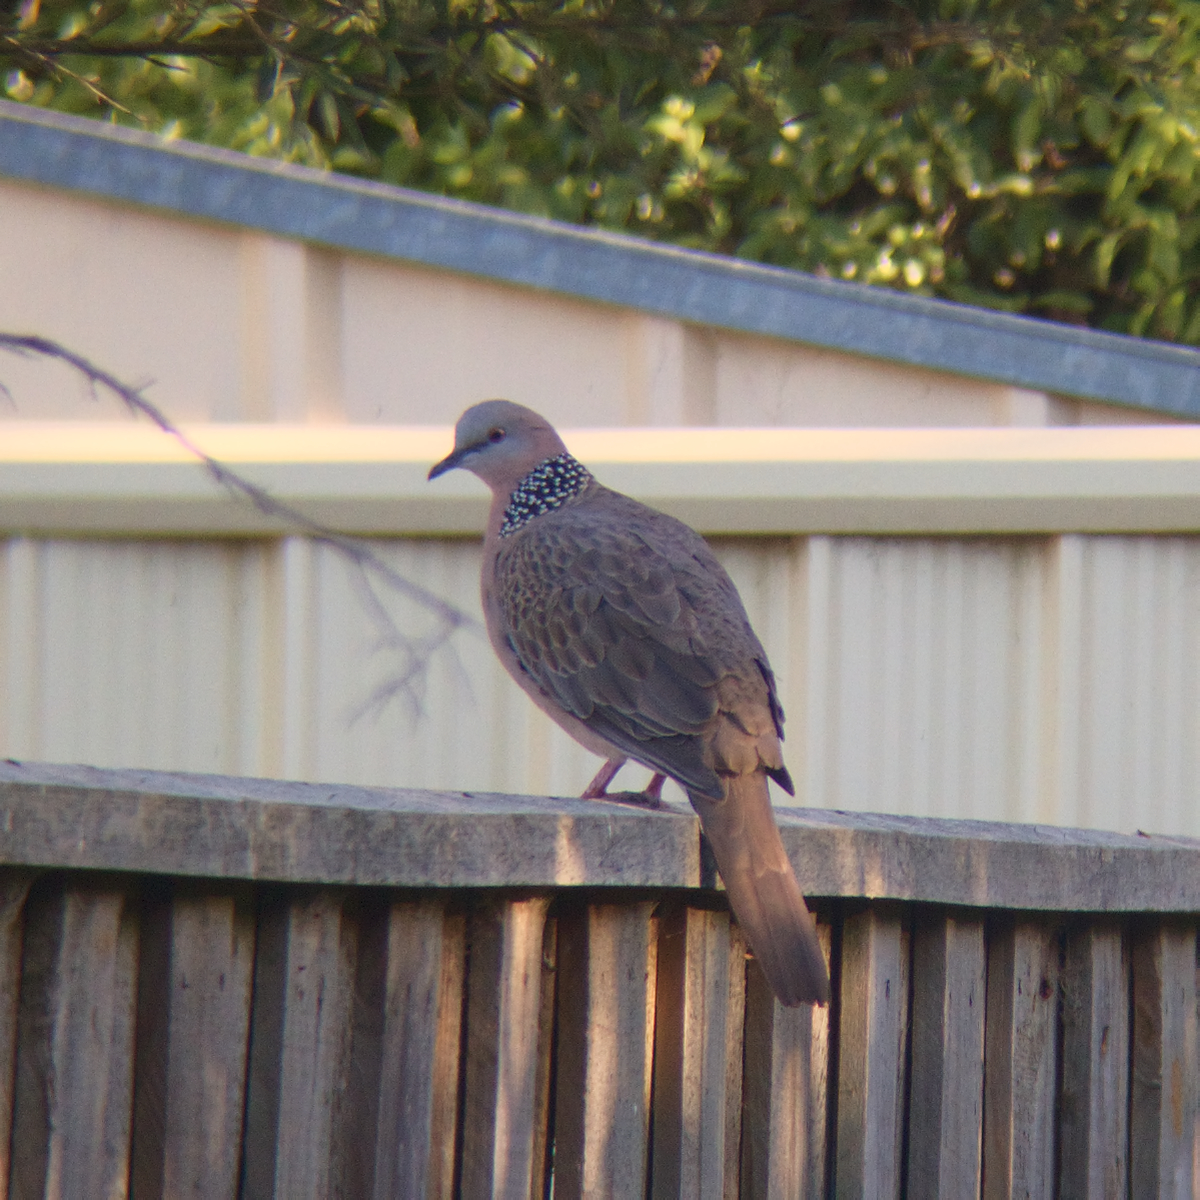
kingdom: Animalia
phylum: Chordata
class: Aves
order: Columbiformes
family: Columbidae
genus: Spilopelia
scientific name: Spilopelia chinensis
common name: Spotted dove
